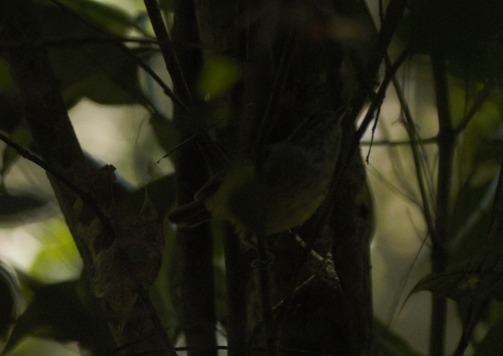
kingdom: Animalia
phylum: Chordata
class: Aves
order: Passeriformes
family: Thamnophilidae
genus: Dysithamnus
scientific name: Dysithamnus mentalis
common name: Plain antvireo
